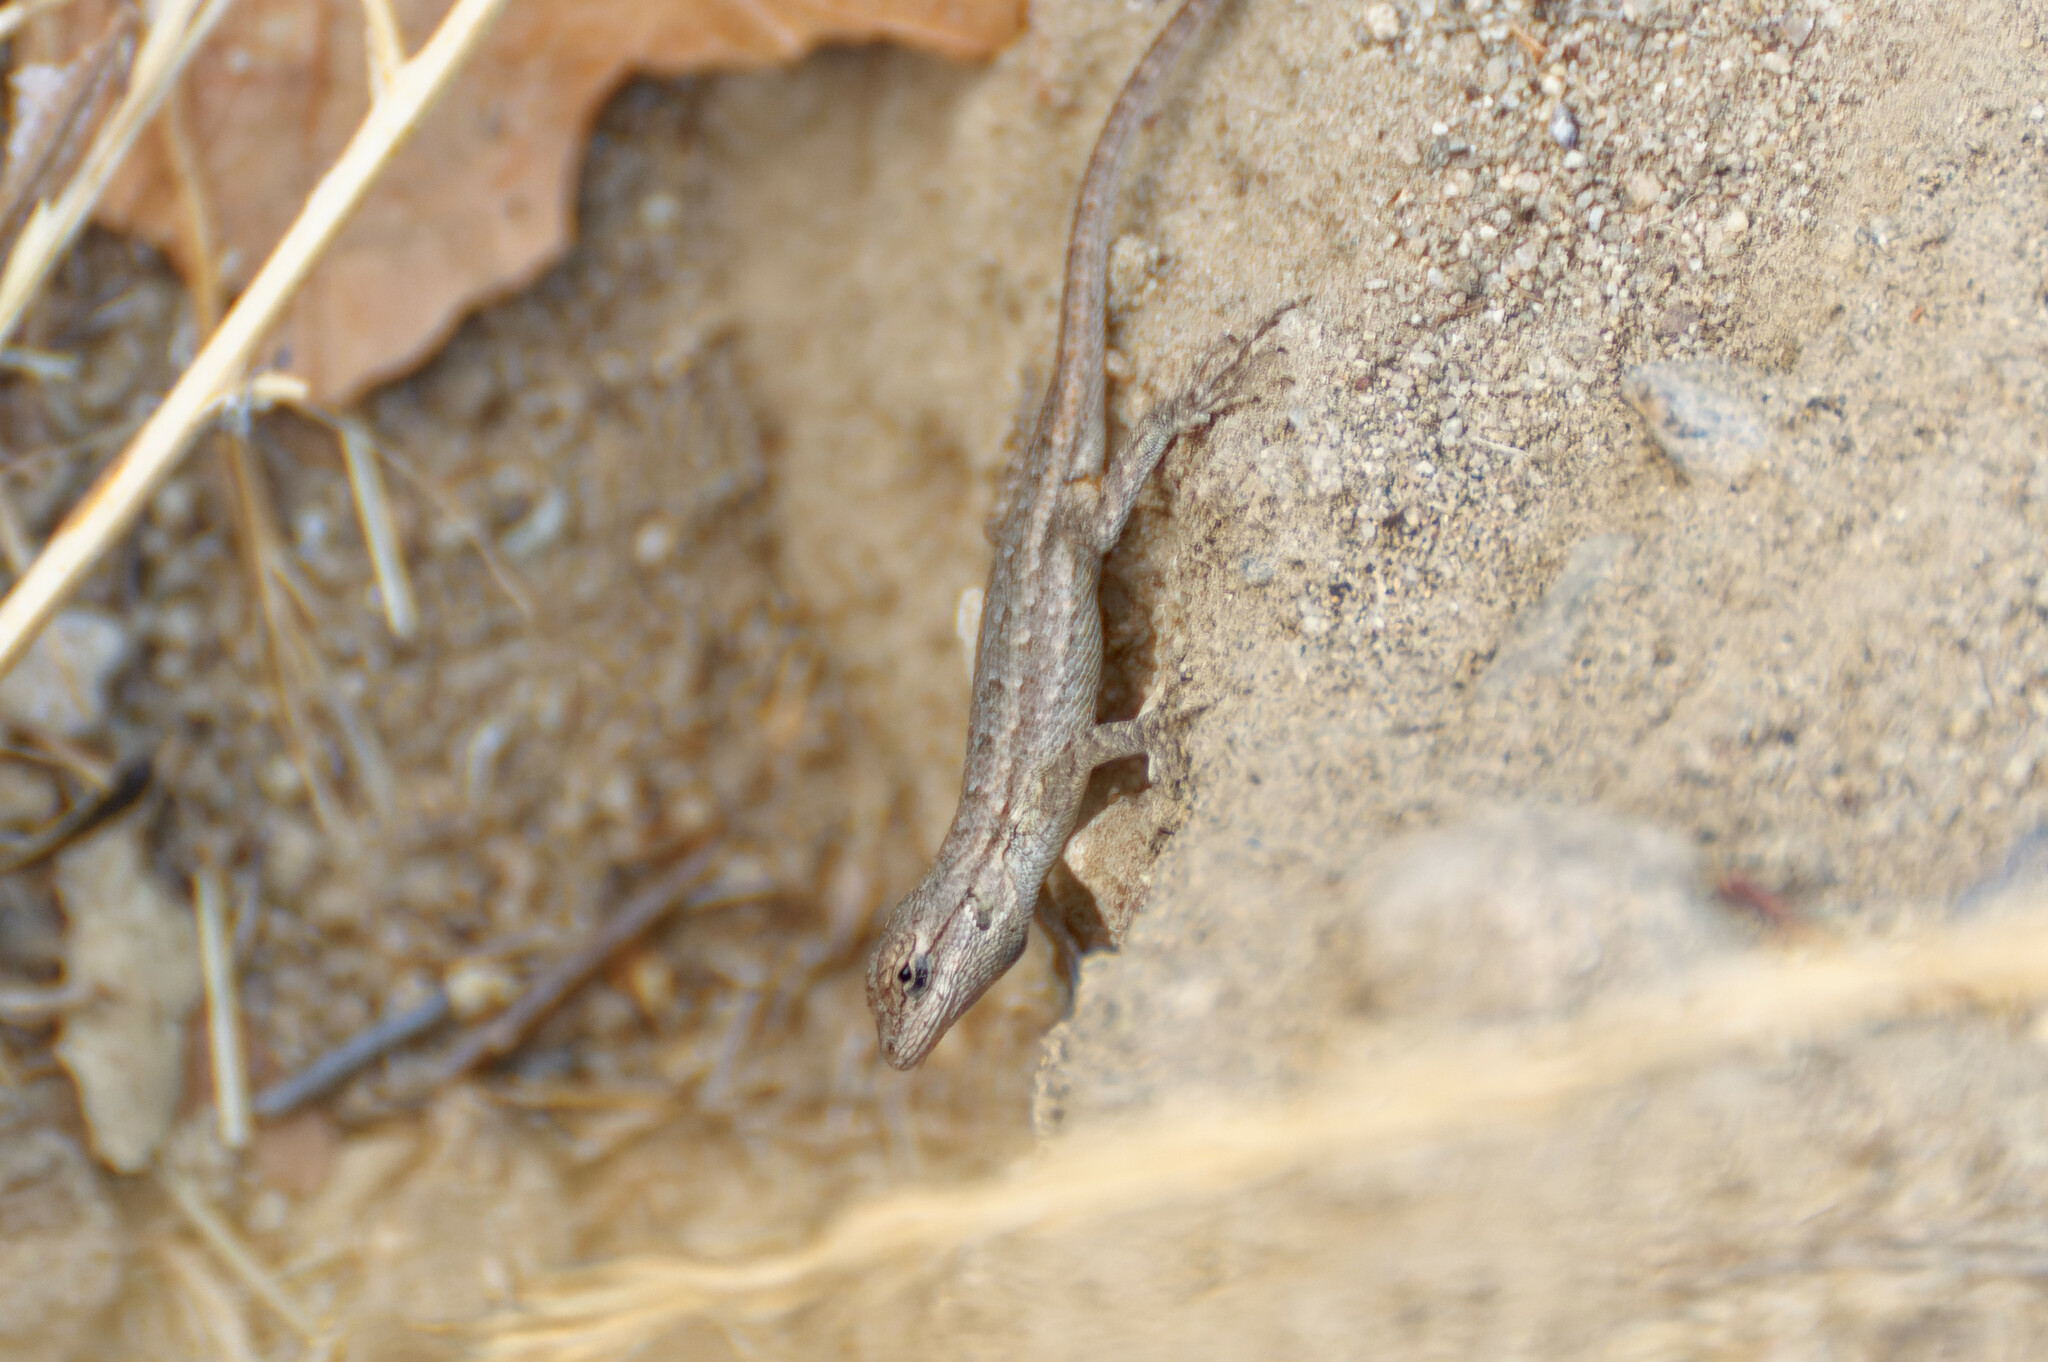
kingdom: Animalia
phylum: Chordata
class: Squamata
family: Phrynosomatidae
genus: Sceloporus
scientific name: Sceloporus occidentalis
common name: Western fence lizard
